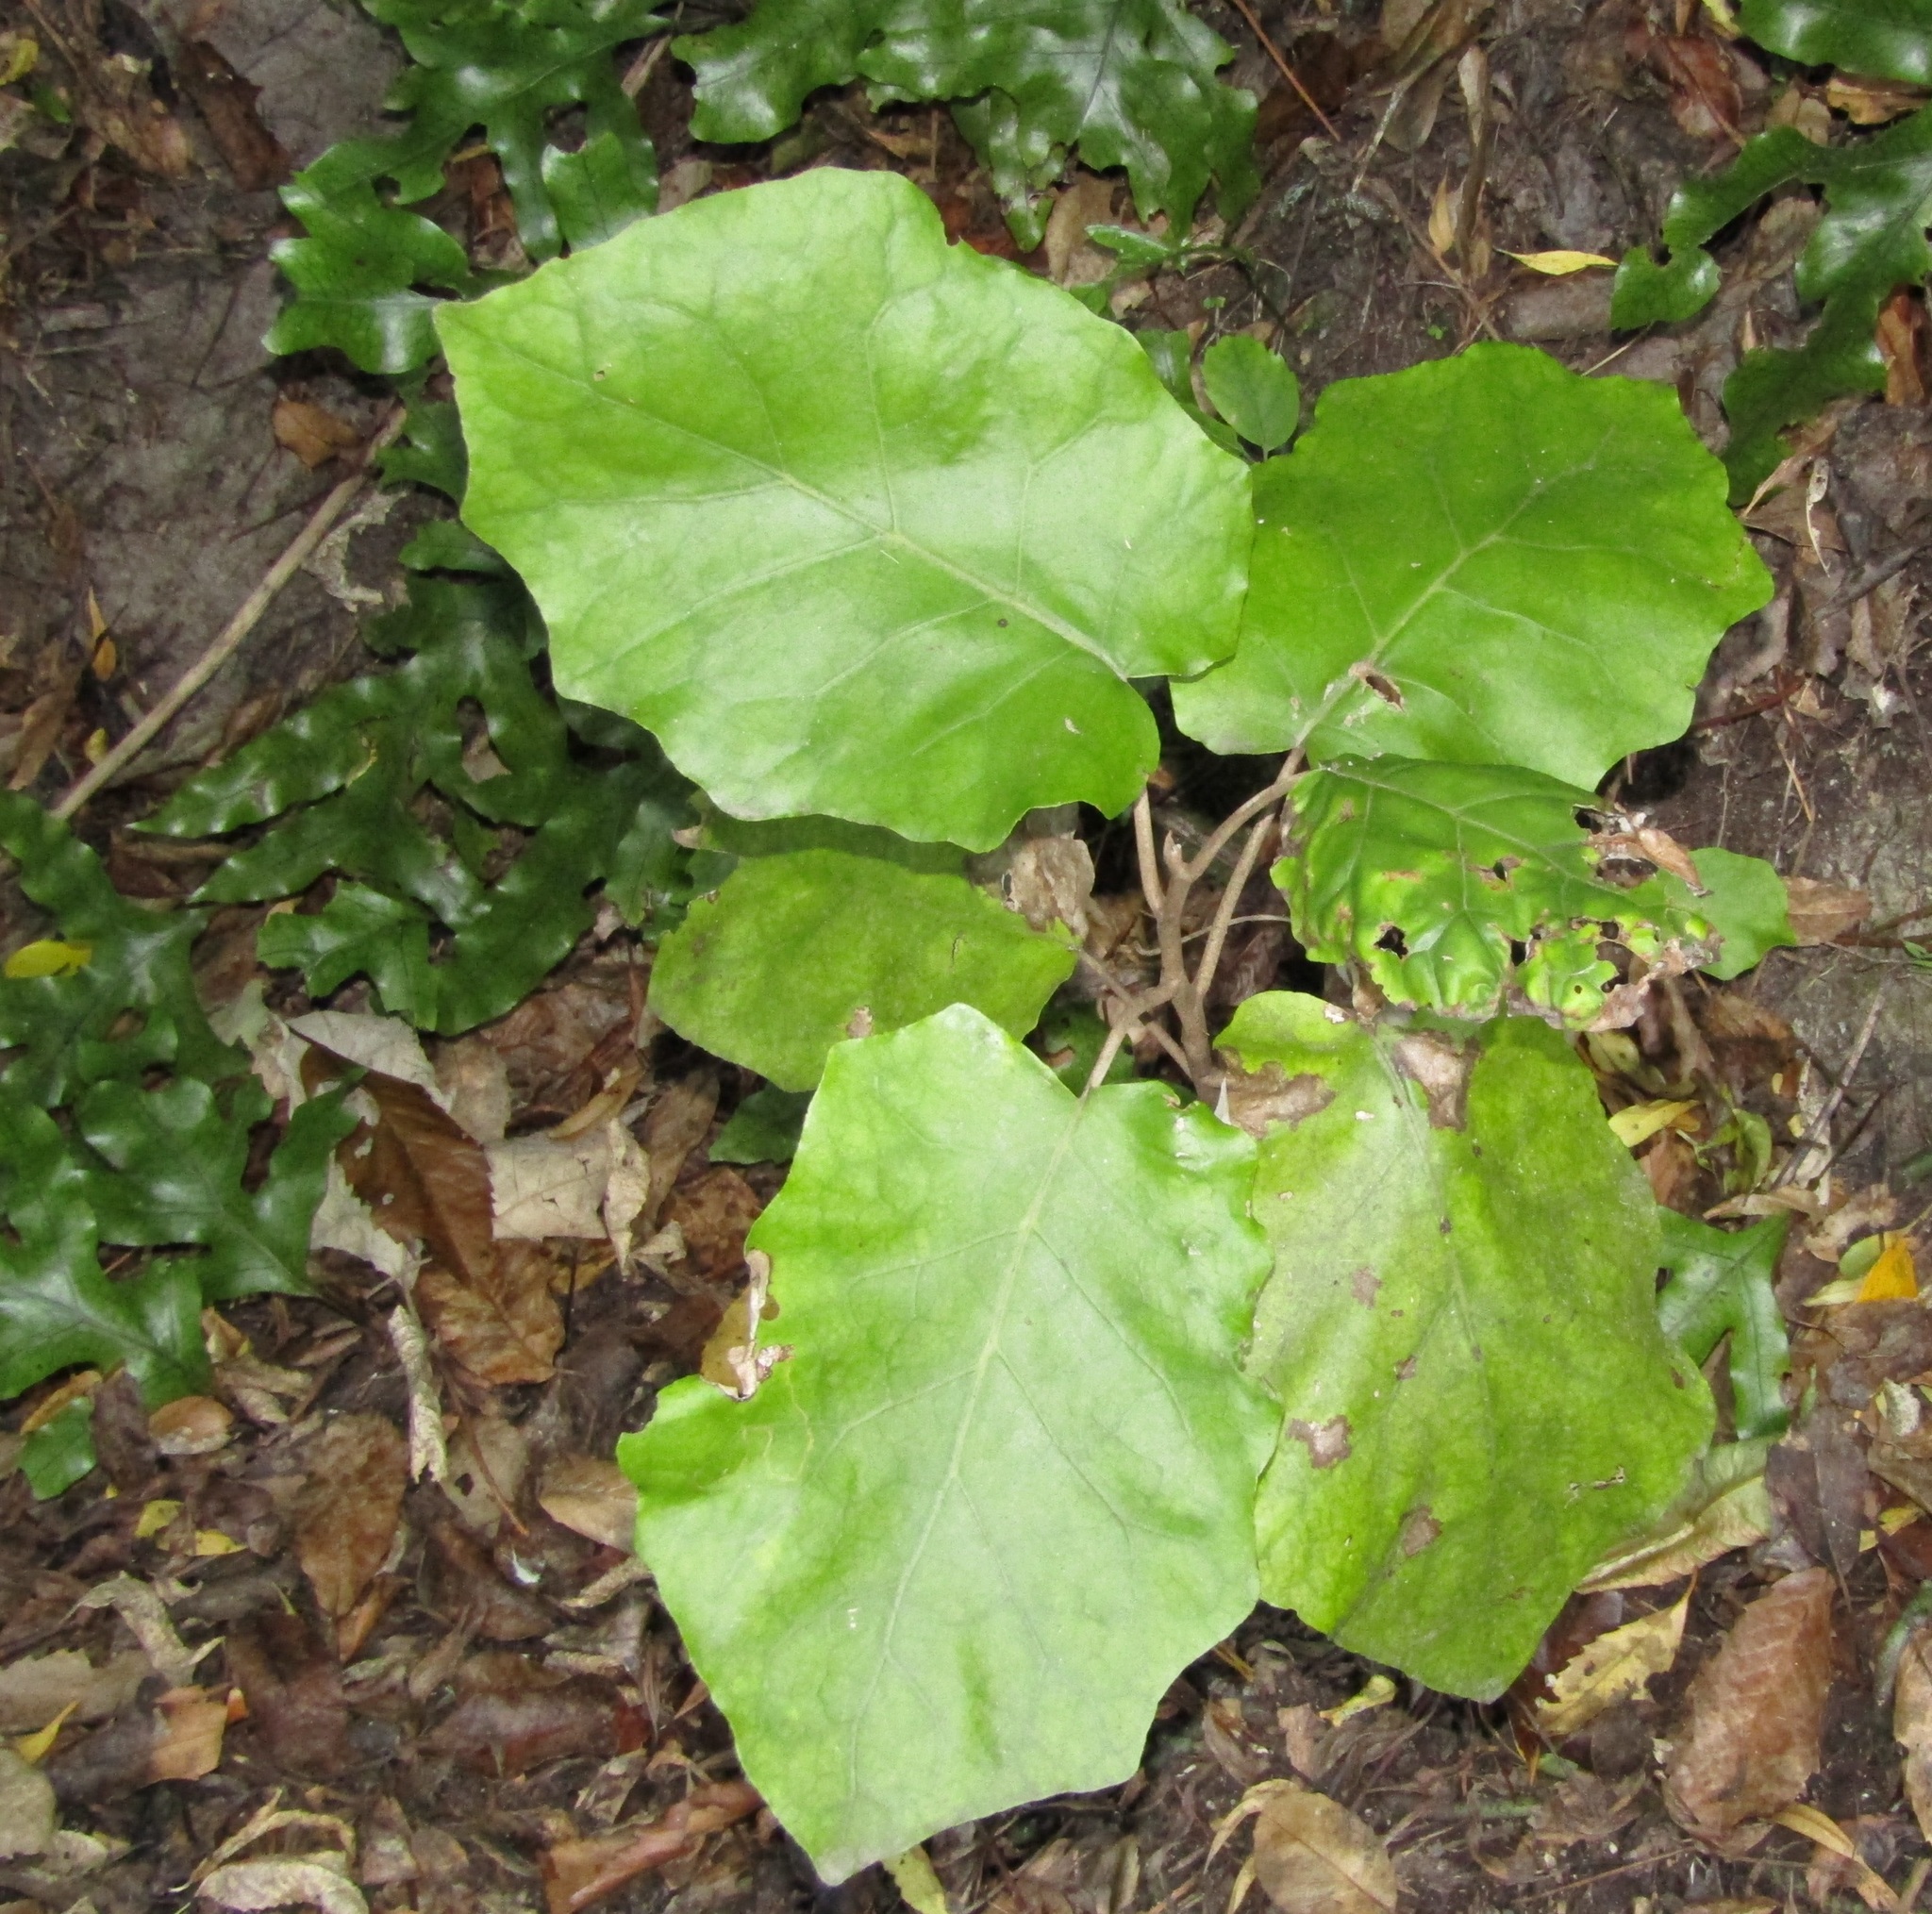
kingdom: Plantae
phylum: Tracheophyta
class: Magnoliopsida
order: Asterales
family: Asteraceae
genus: Brachyglottis
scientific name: Brachyglottis repanda
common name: Hedge ragwort
